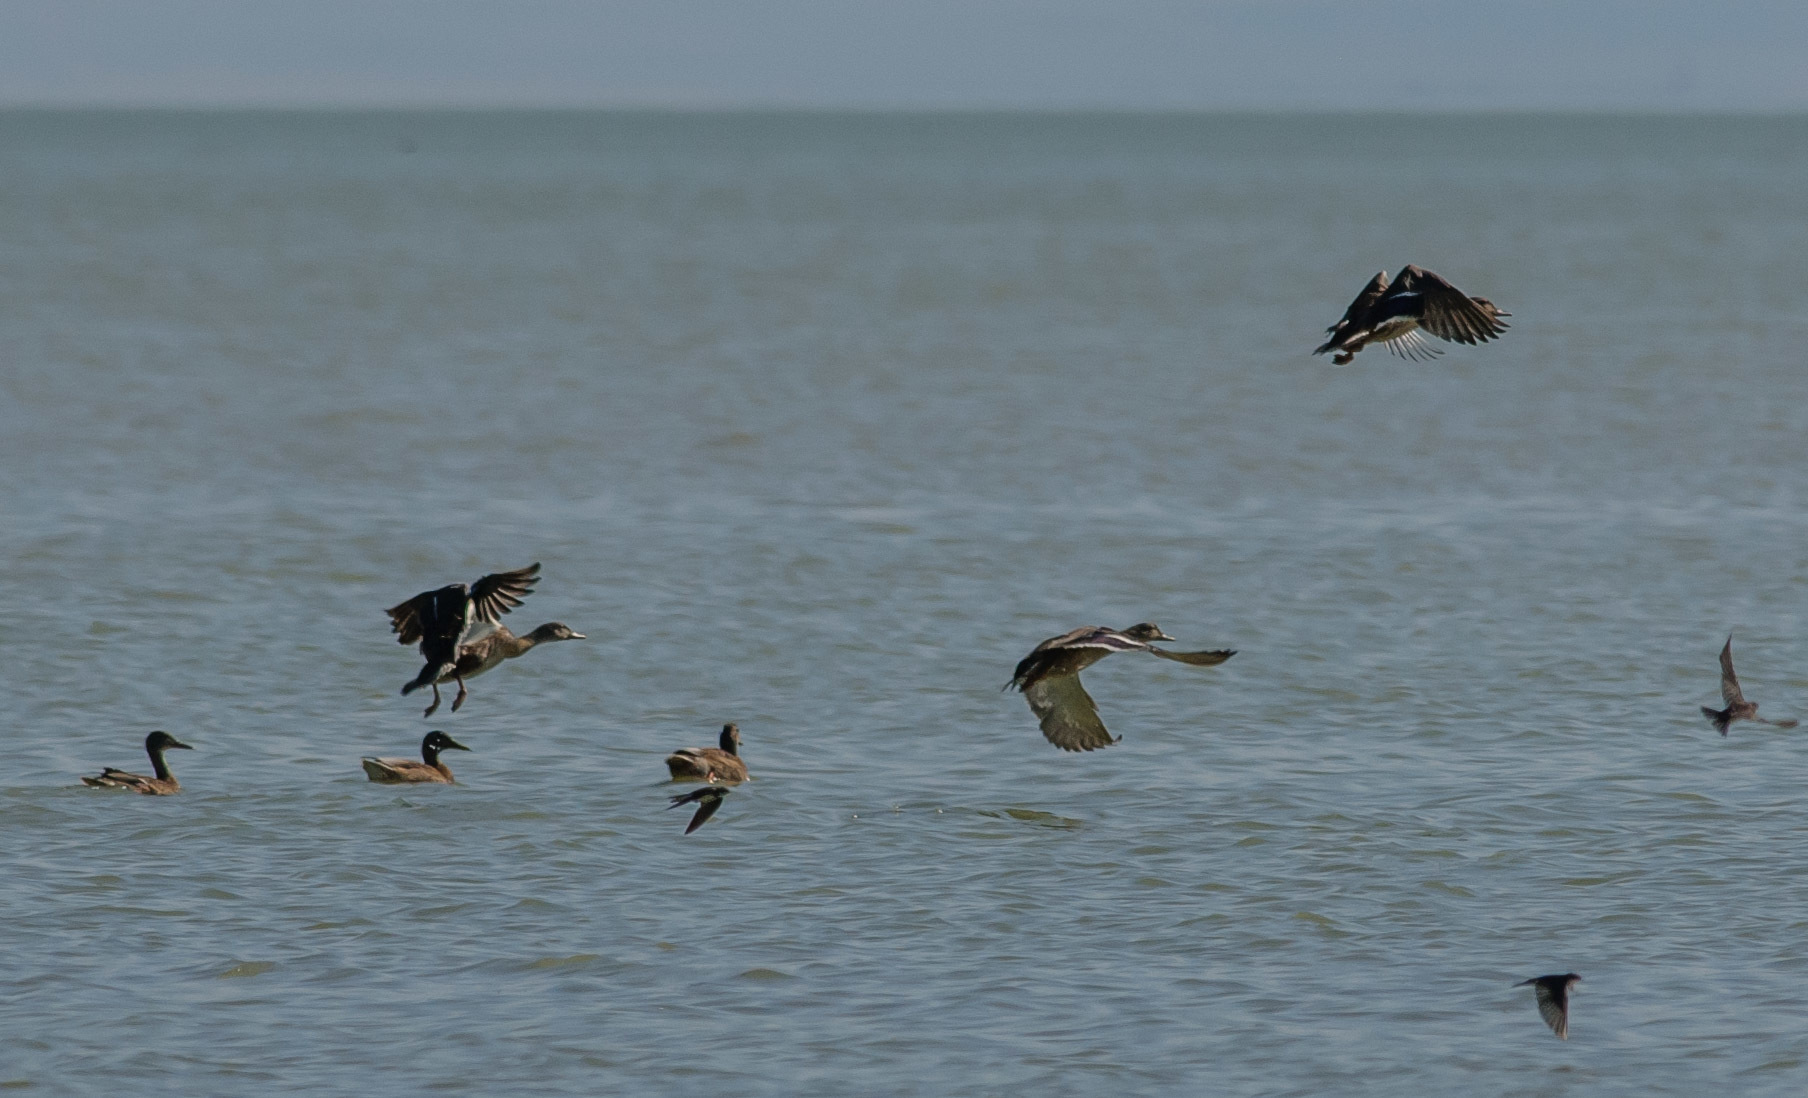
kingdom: Animalia
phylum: Chordata
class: Aves
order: Anseriformes
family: Anatidae
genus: Anas
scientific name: Anas platyrhynchos
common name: Mallard
